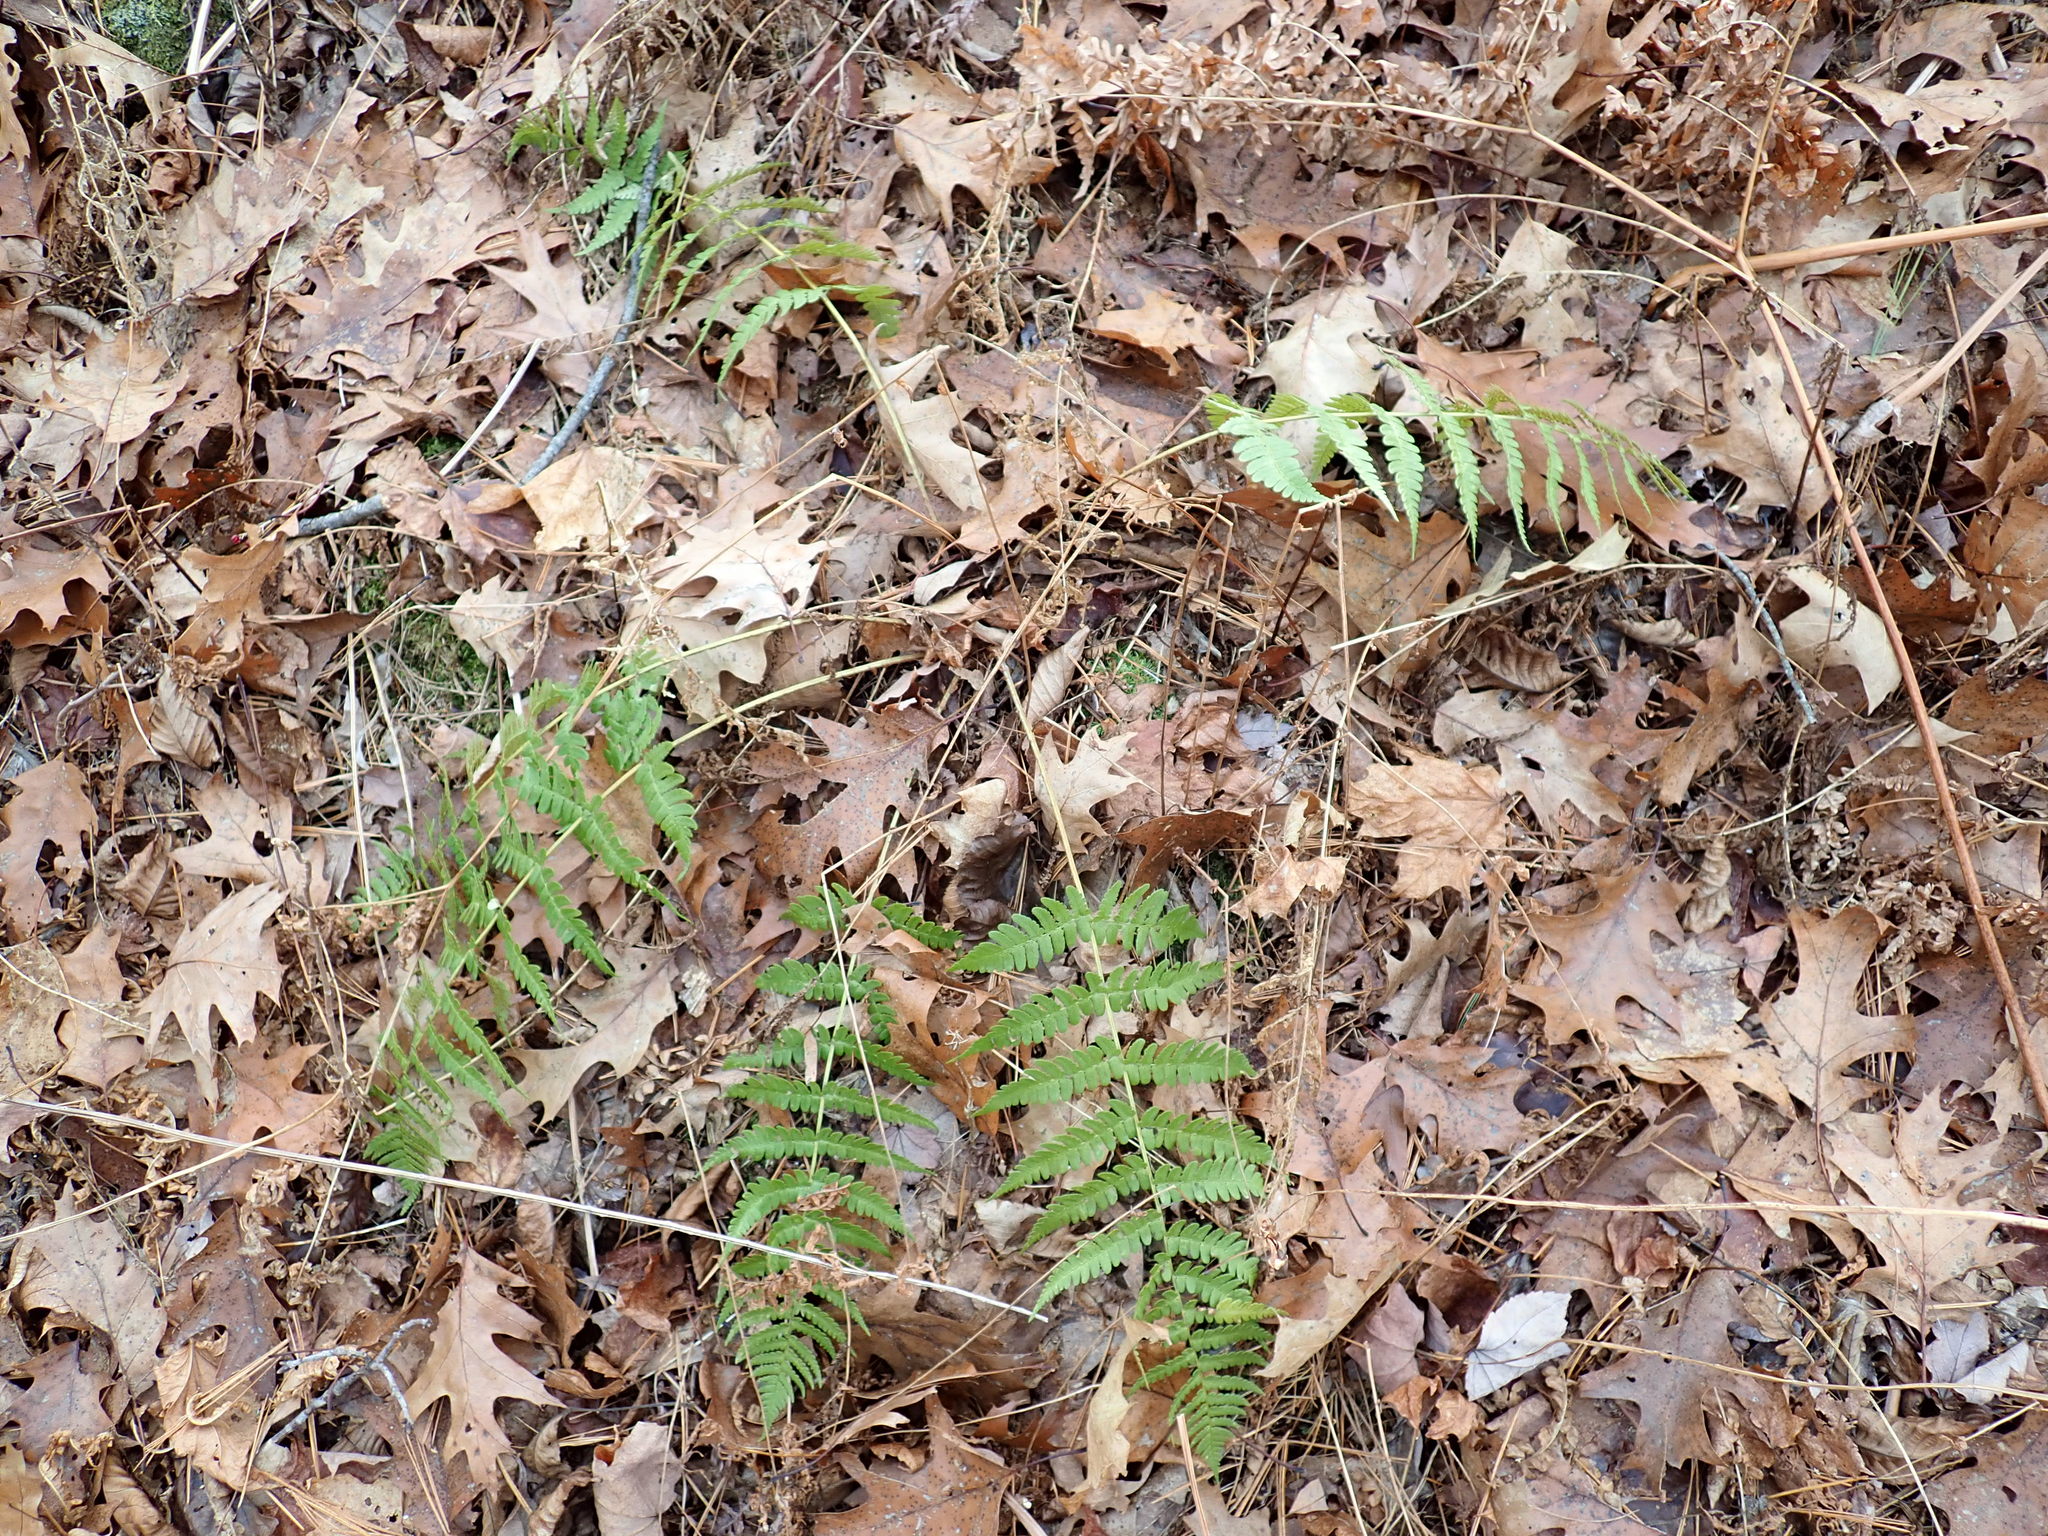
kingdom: Plantae
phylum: Tracheophyta
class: Polypodiopsida
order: Polypodiales
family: Dryopteridaceae
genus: Dryopteris
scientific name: Dryopteris marginalis
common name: Marginal wood fern
